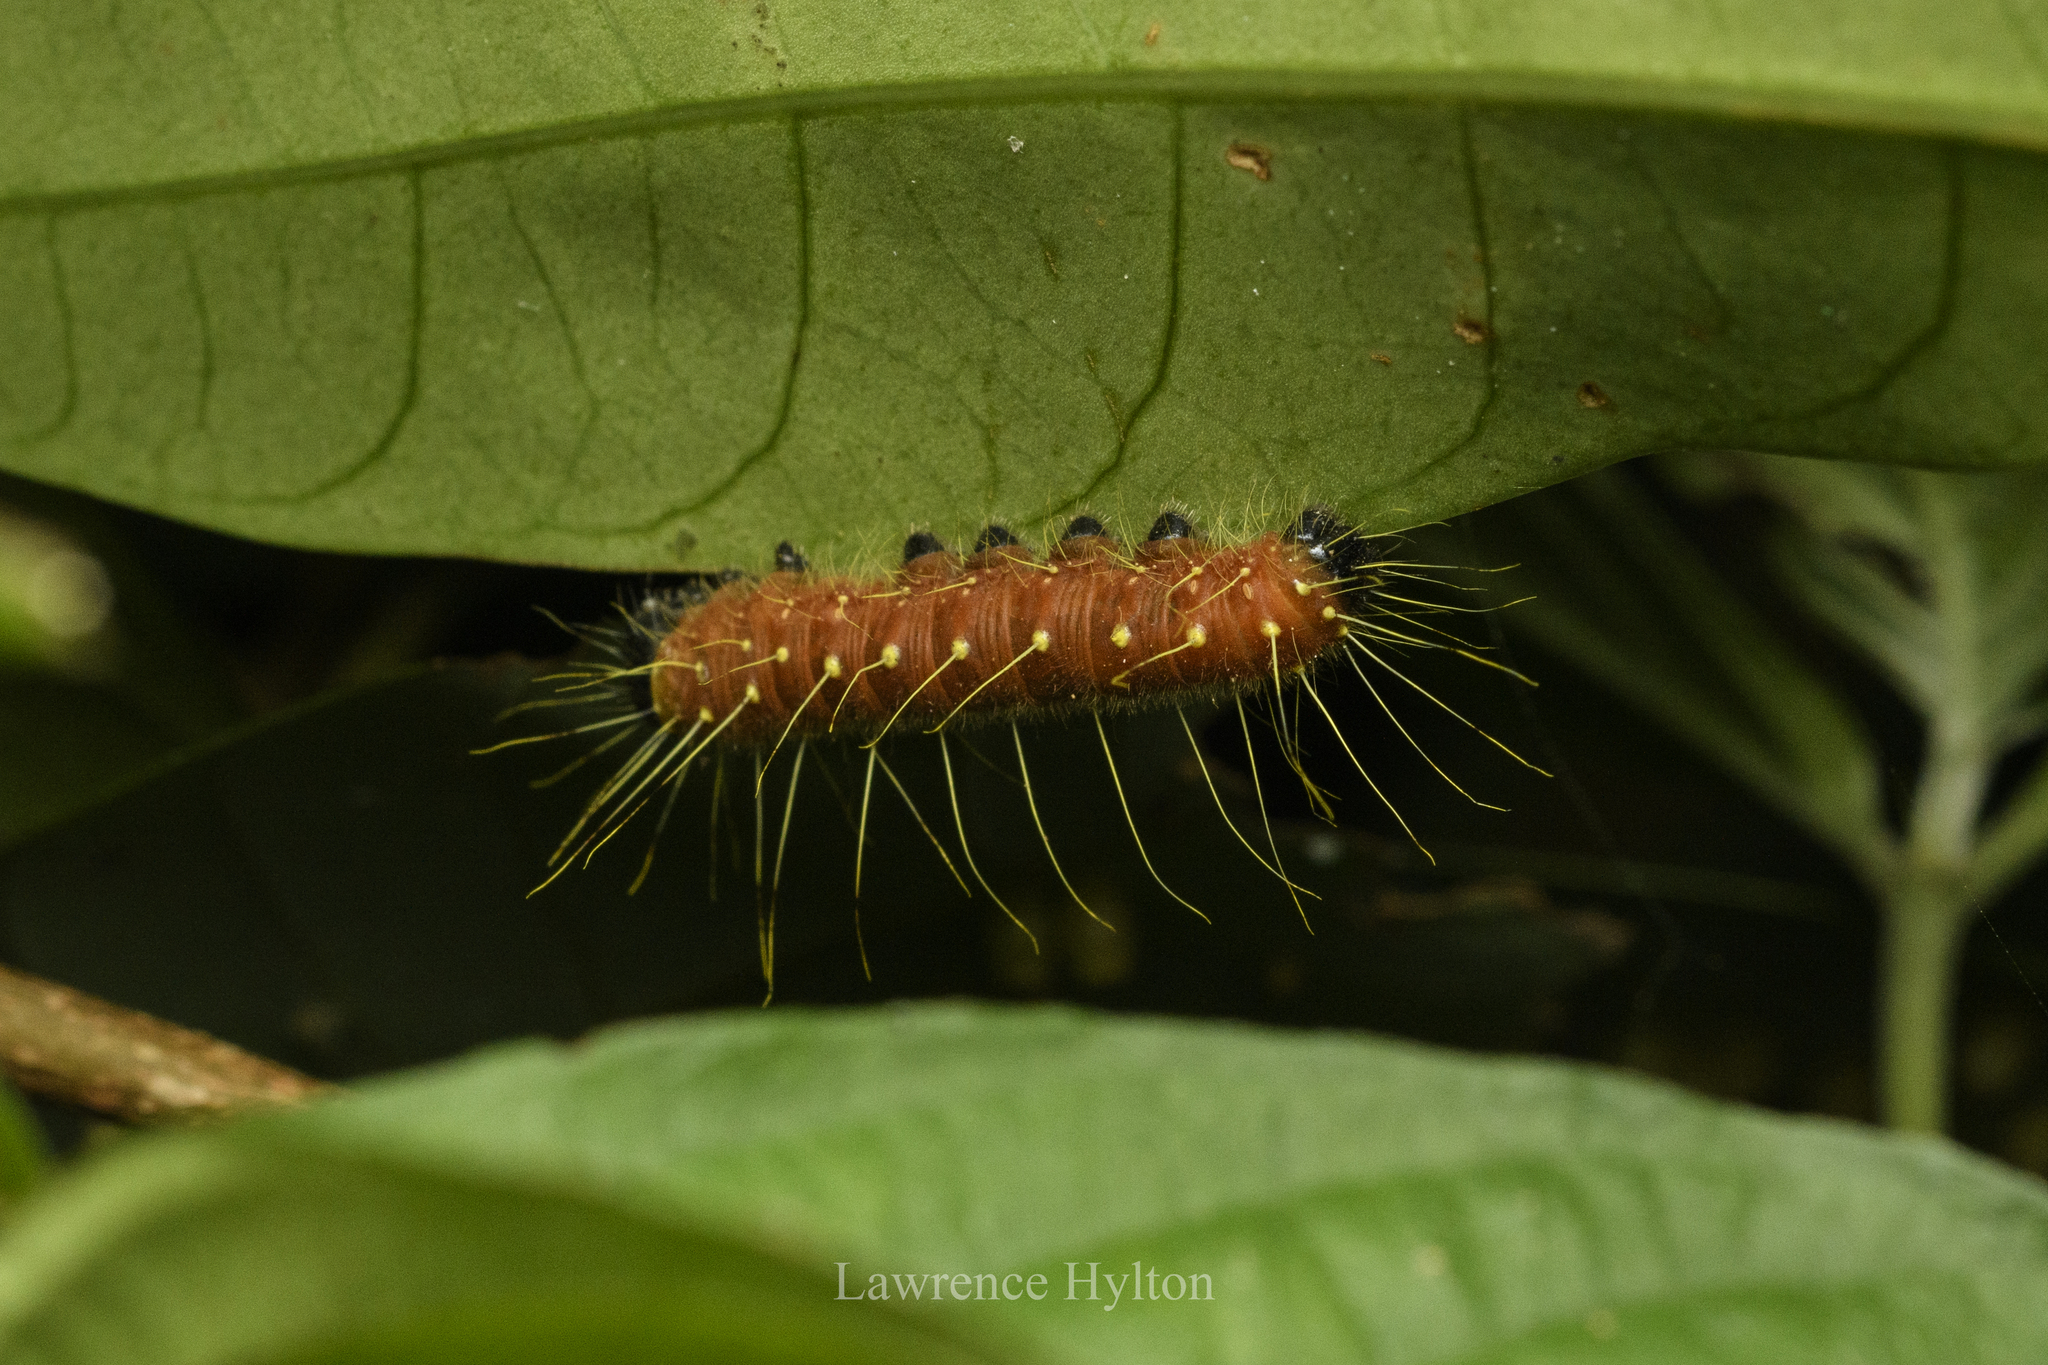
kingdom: Animalia
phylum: Arthropoda
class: Insecta
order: Lepidoptera
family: Pieridae
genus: Delias
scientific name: Delias hyparete
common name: Painted jezebel
